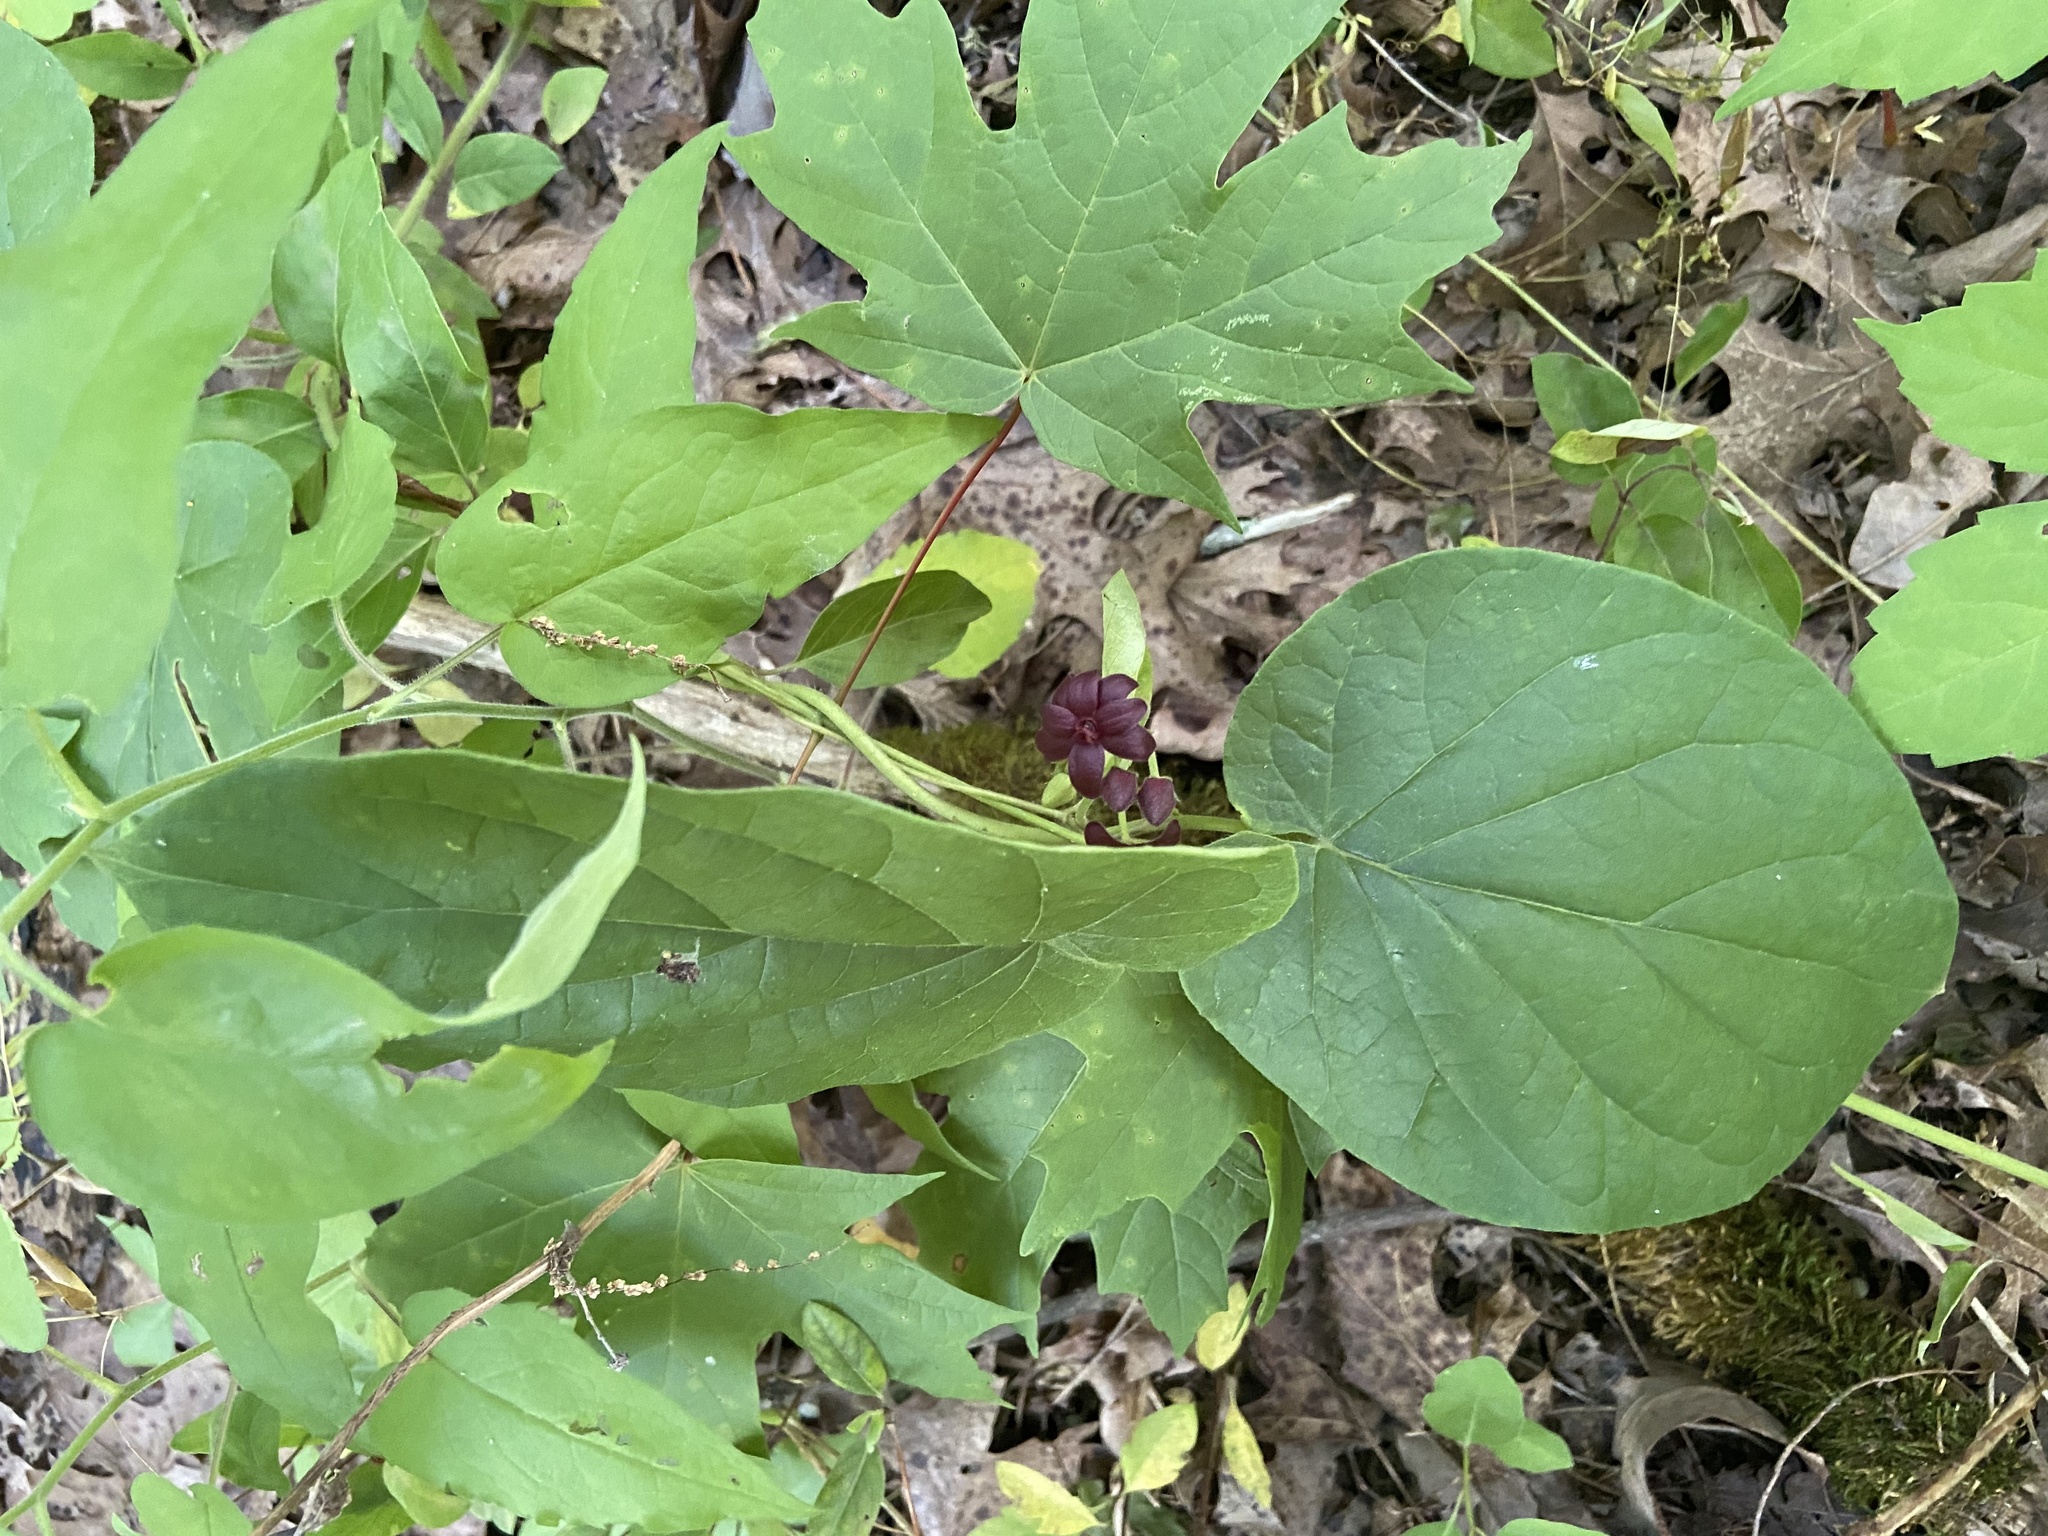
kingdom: Plantae
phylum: Tracheophyta
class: Magnoliopsida
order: Gentianales
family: Apocynaceae
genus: Matelea
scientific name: Matelea carolinensis
